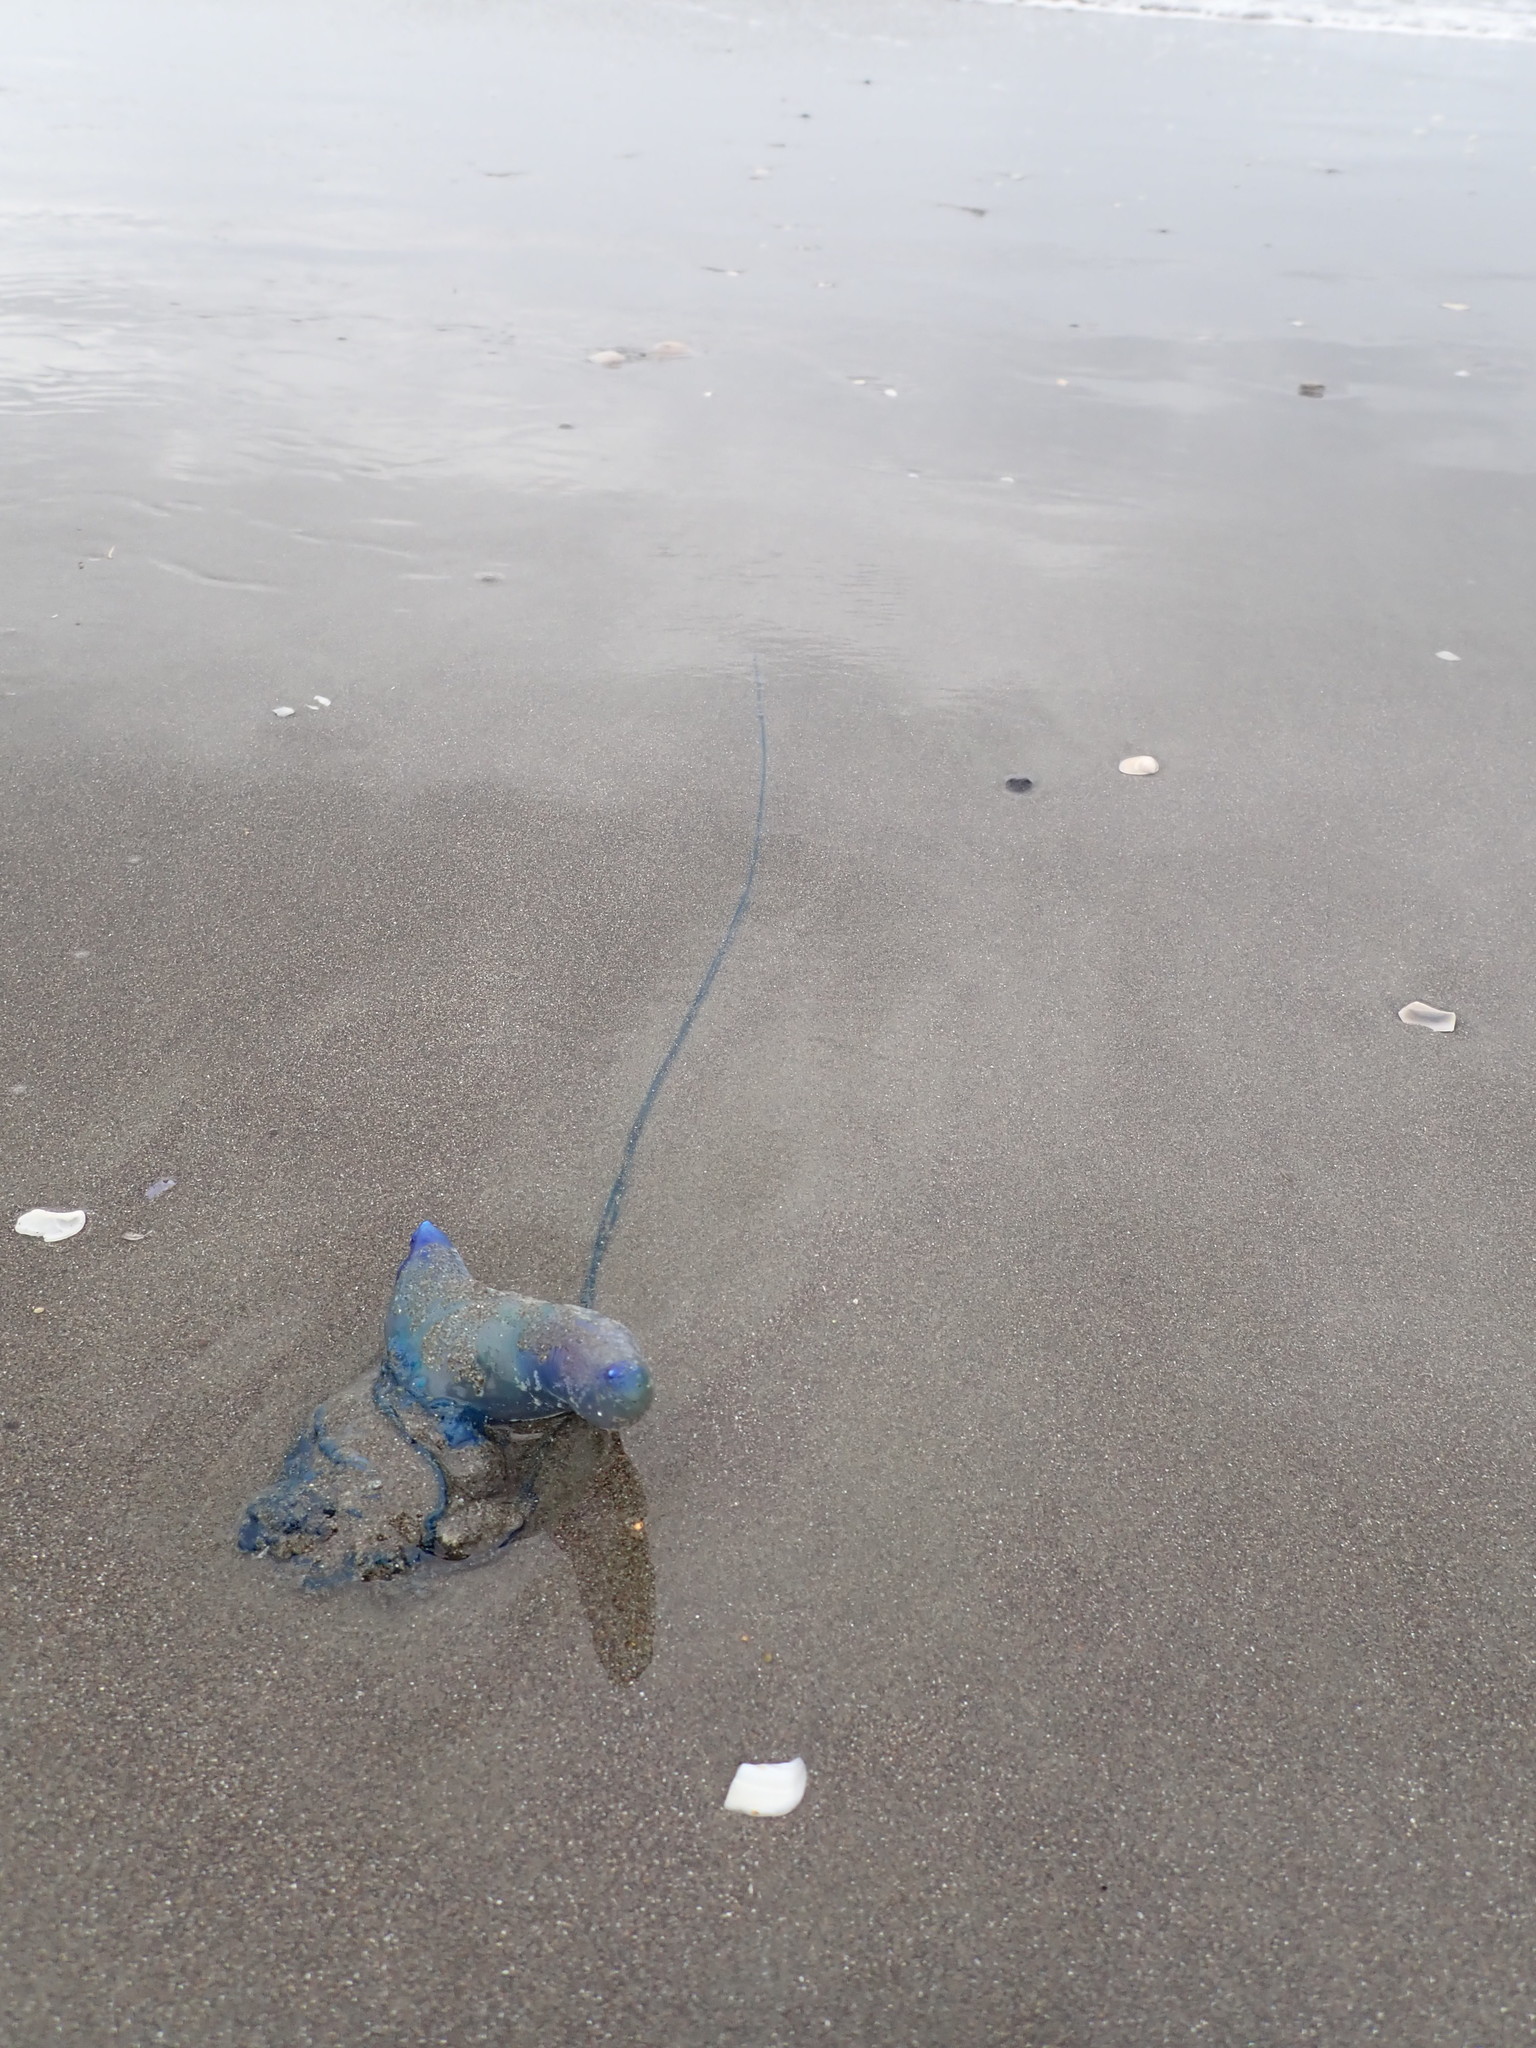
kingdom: Animalia
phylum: Cnidaria
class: Hydrozoa
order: Siphonophorae
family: Physaliidae
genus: Physalia
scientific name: Physalia physalis
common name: Portuguese man-of-war
